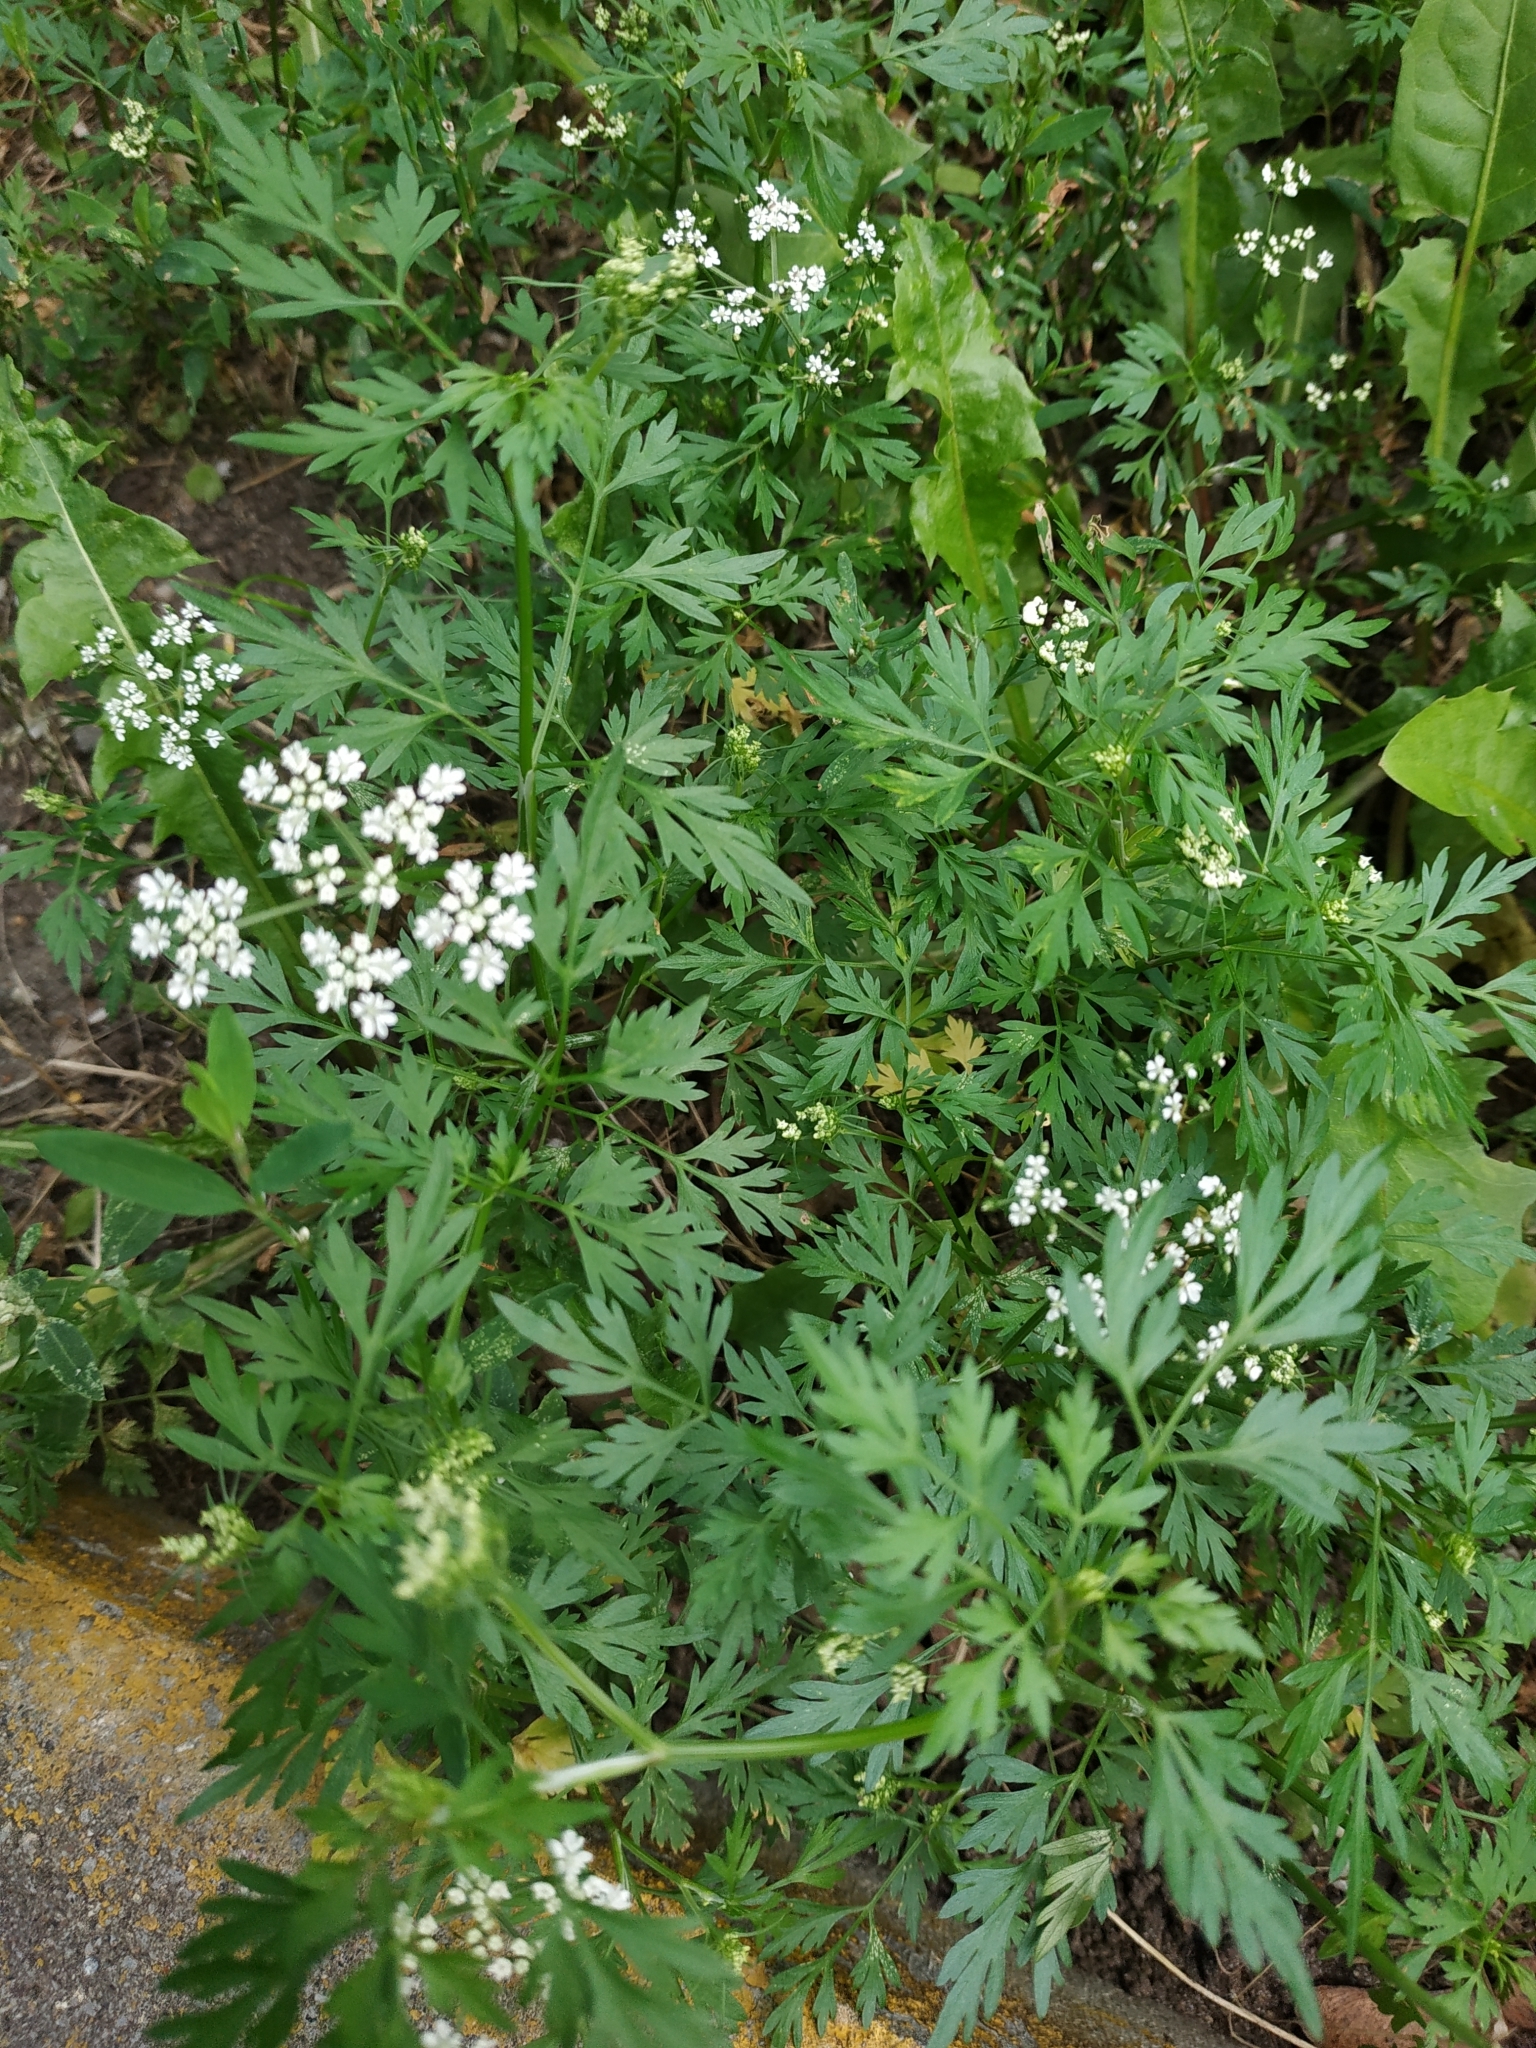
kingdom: Plantae
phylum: Tracheophyta
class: Magnoliopsida
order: Apiales
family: Apiaceae
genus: Aethusa
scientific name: Aethusa cynapium
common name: Fool's parsley
